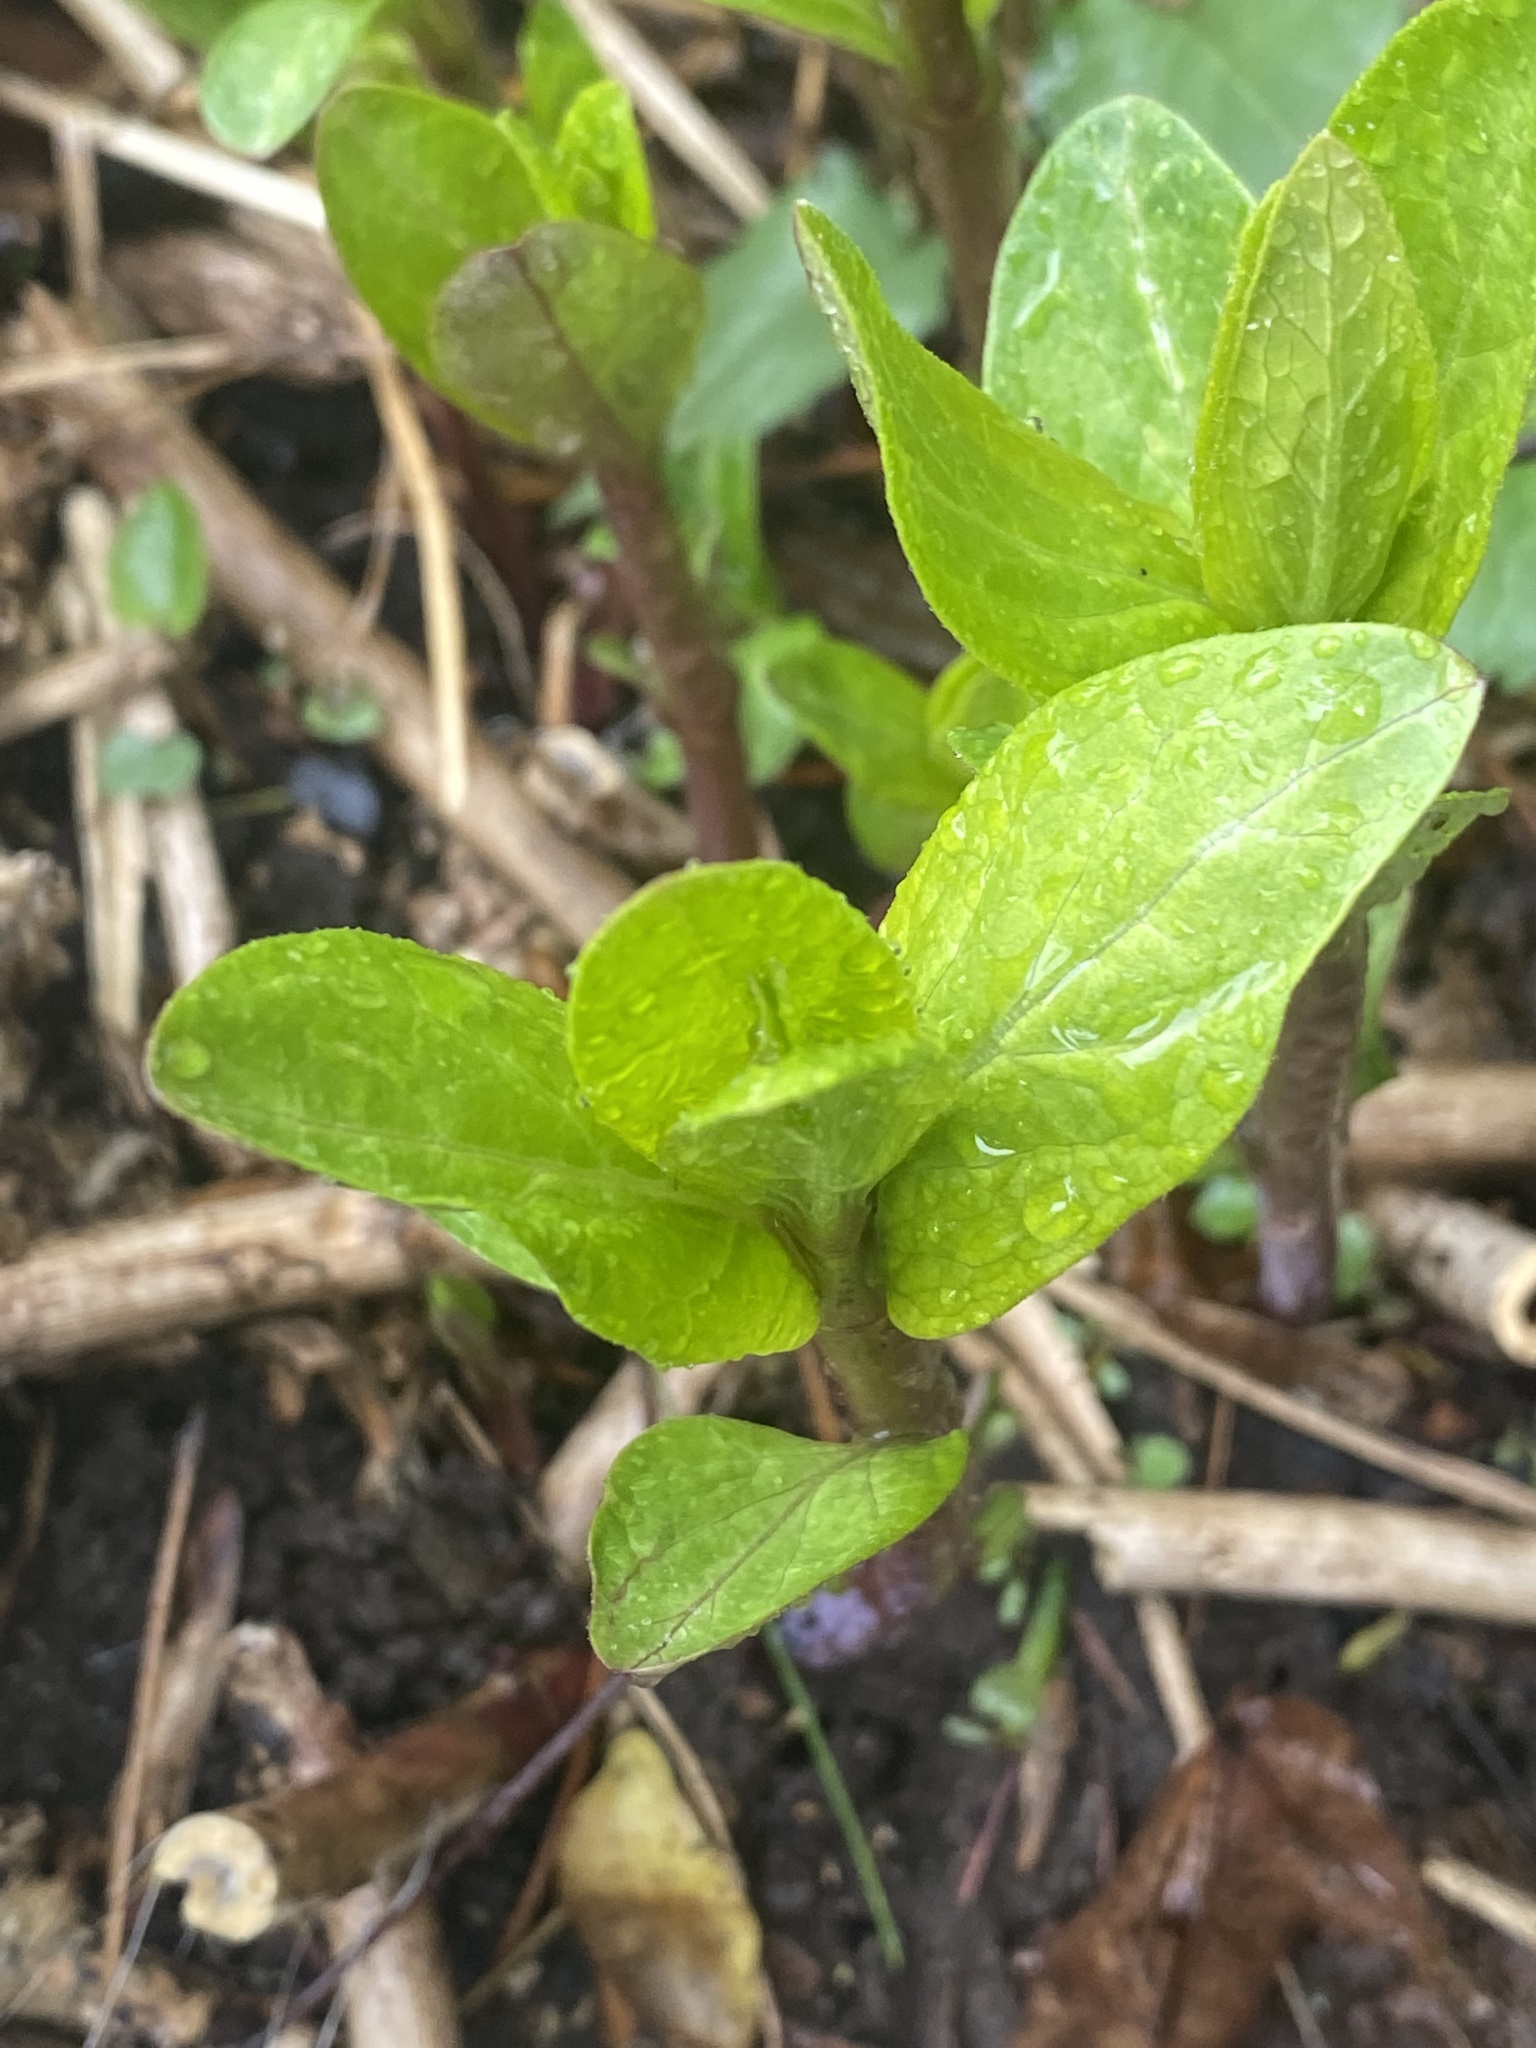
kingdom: Plantae
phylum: Tracheophyta
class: Magnoliopsida
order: Gentianales
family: Apocynaceae
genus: Asclepias
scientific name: Asclepias incarnata
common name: Swamp milkweed
